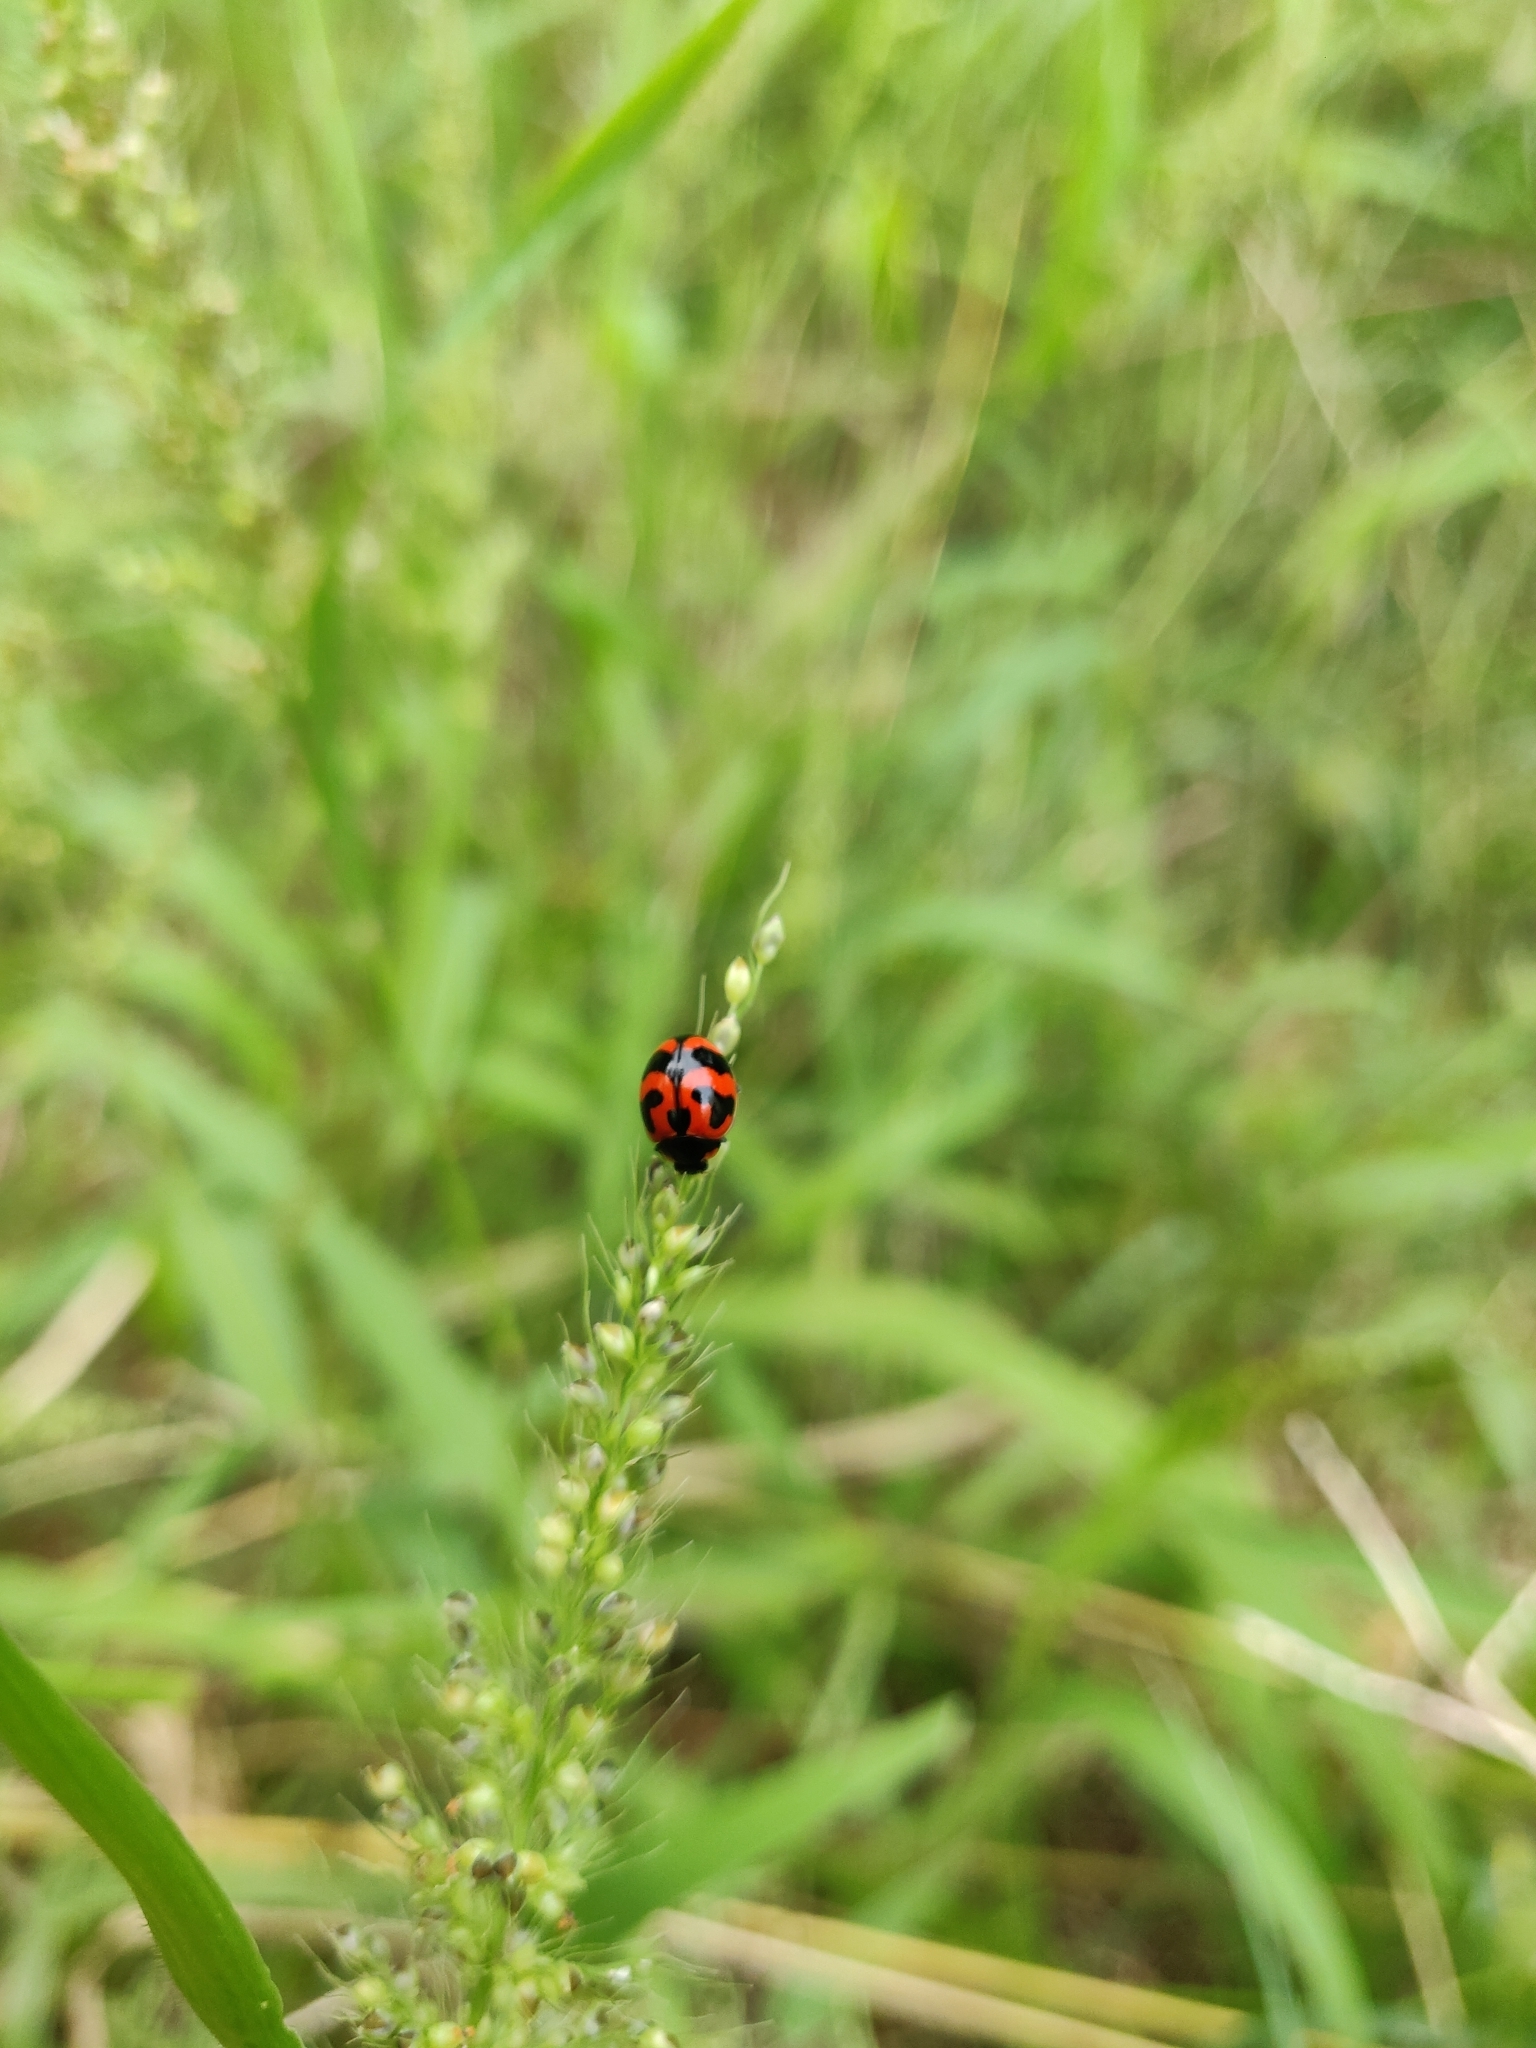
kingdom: Animalia
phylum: Arthropoda
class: Insecta
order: Coleoptera
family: Coccinellidae
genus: Coccinella
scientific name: Coccinella transversalis
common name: Transverse lady beetle
